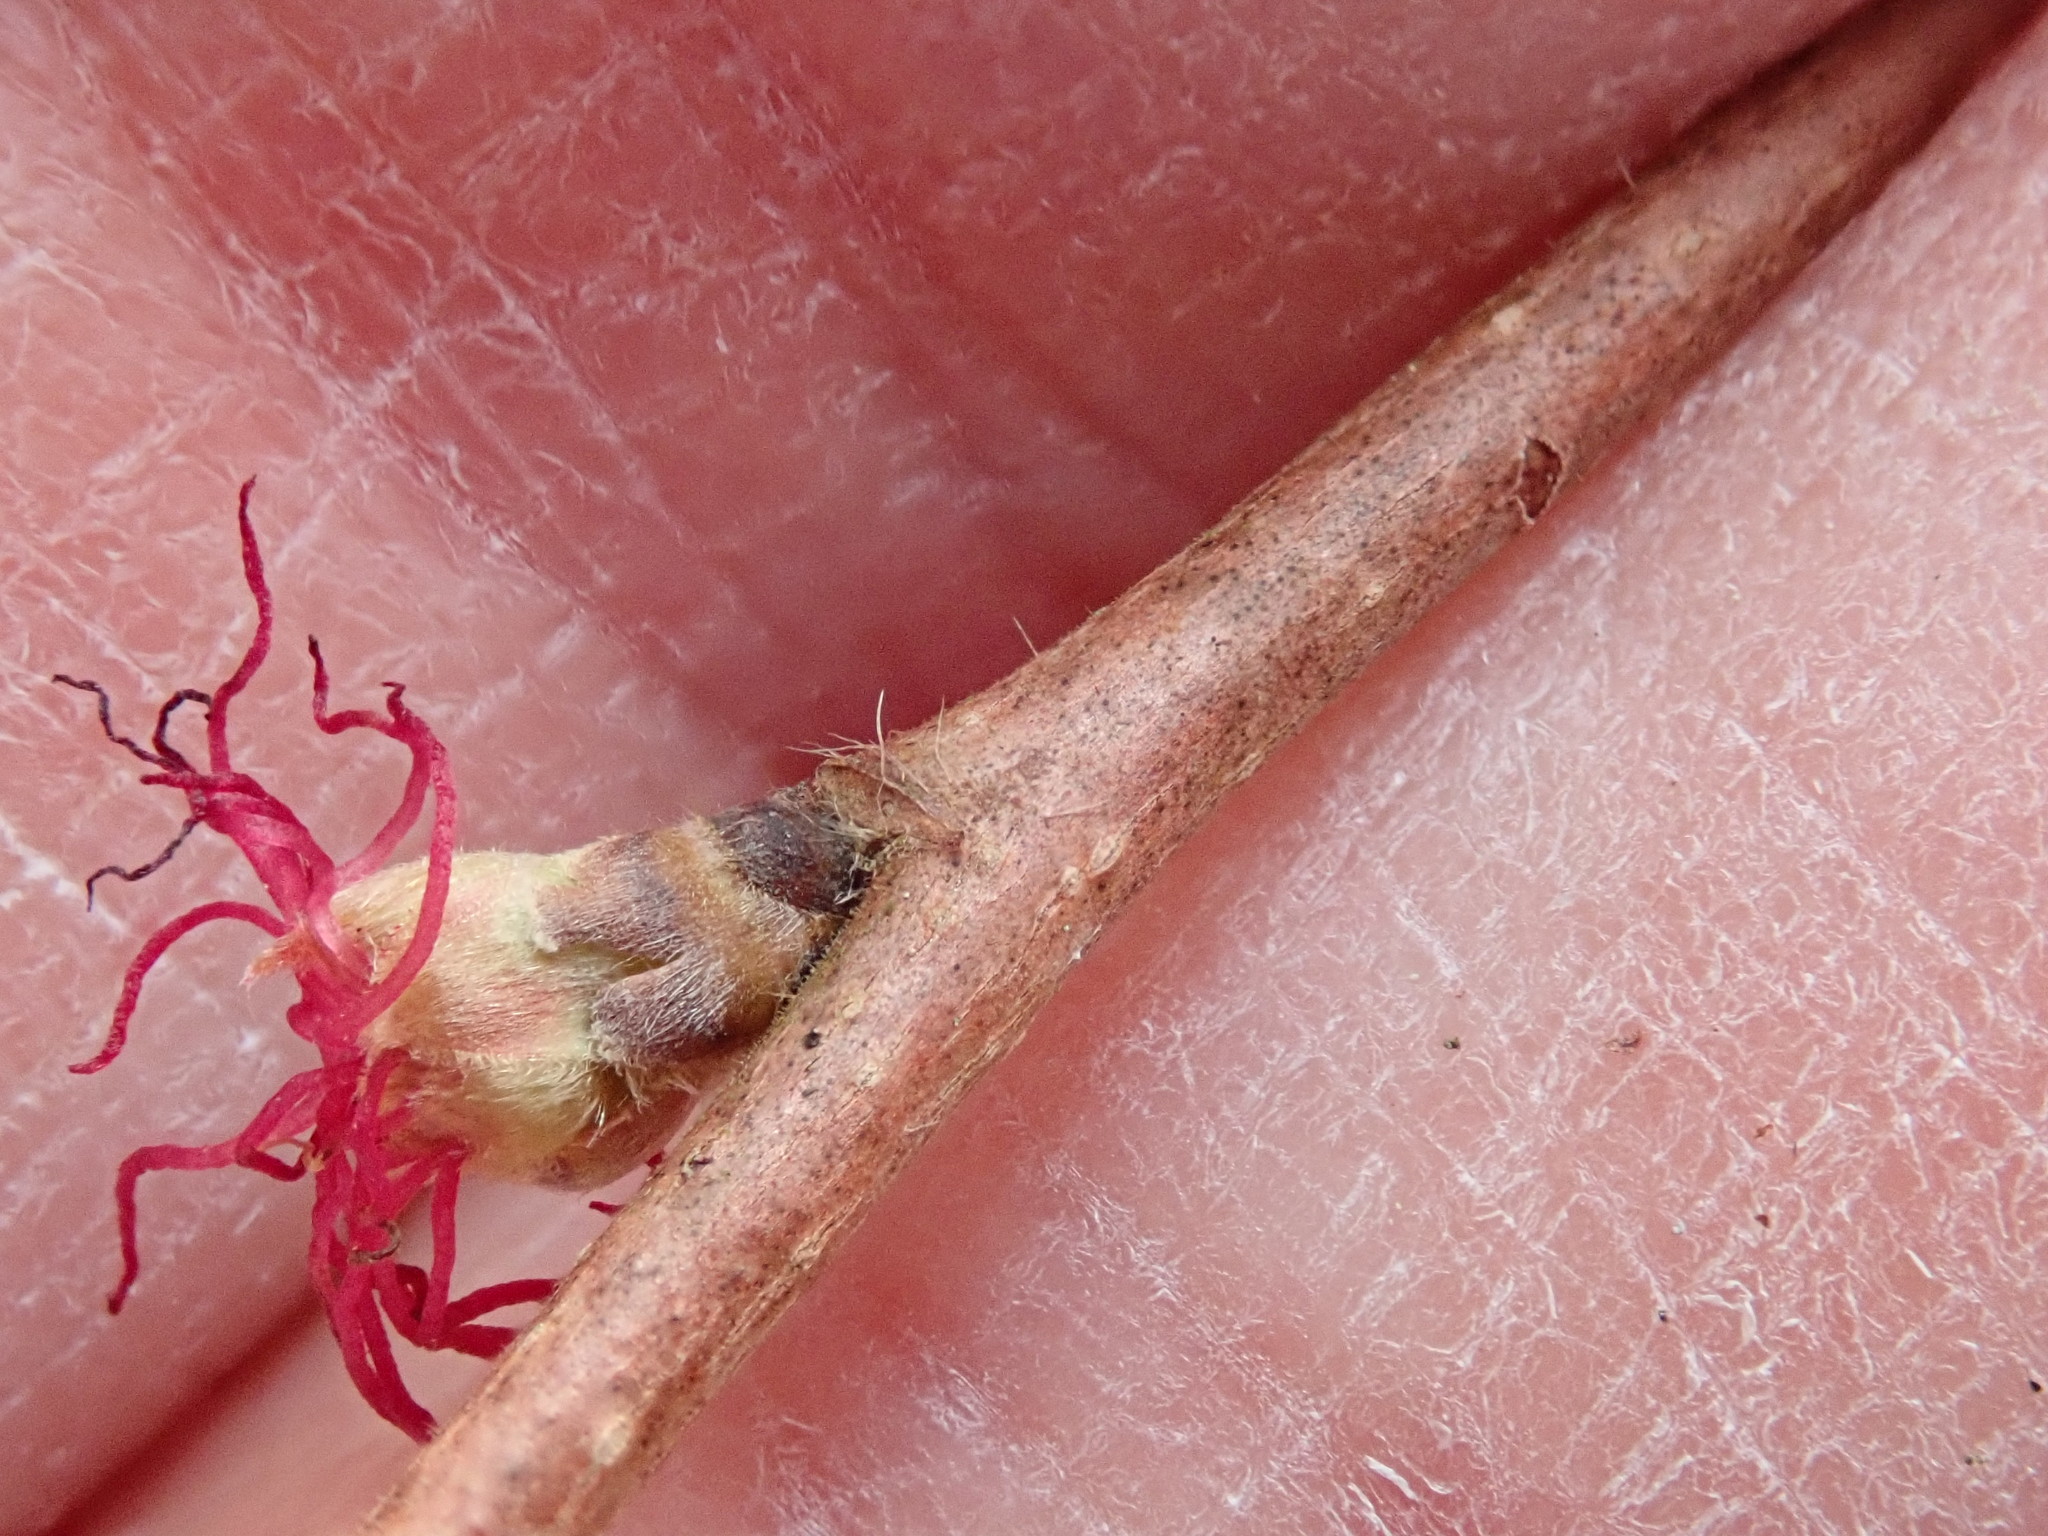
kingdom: Plantae
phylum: Tracheophyta
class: Magnoliopsida
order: Fagales
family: Betulaceae
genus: Corylus
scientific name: Corylus cornuta
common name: Beaked hazel
